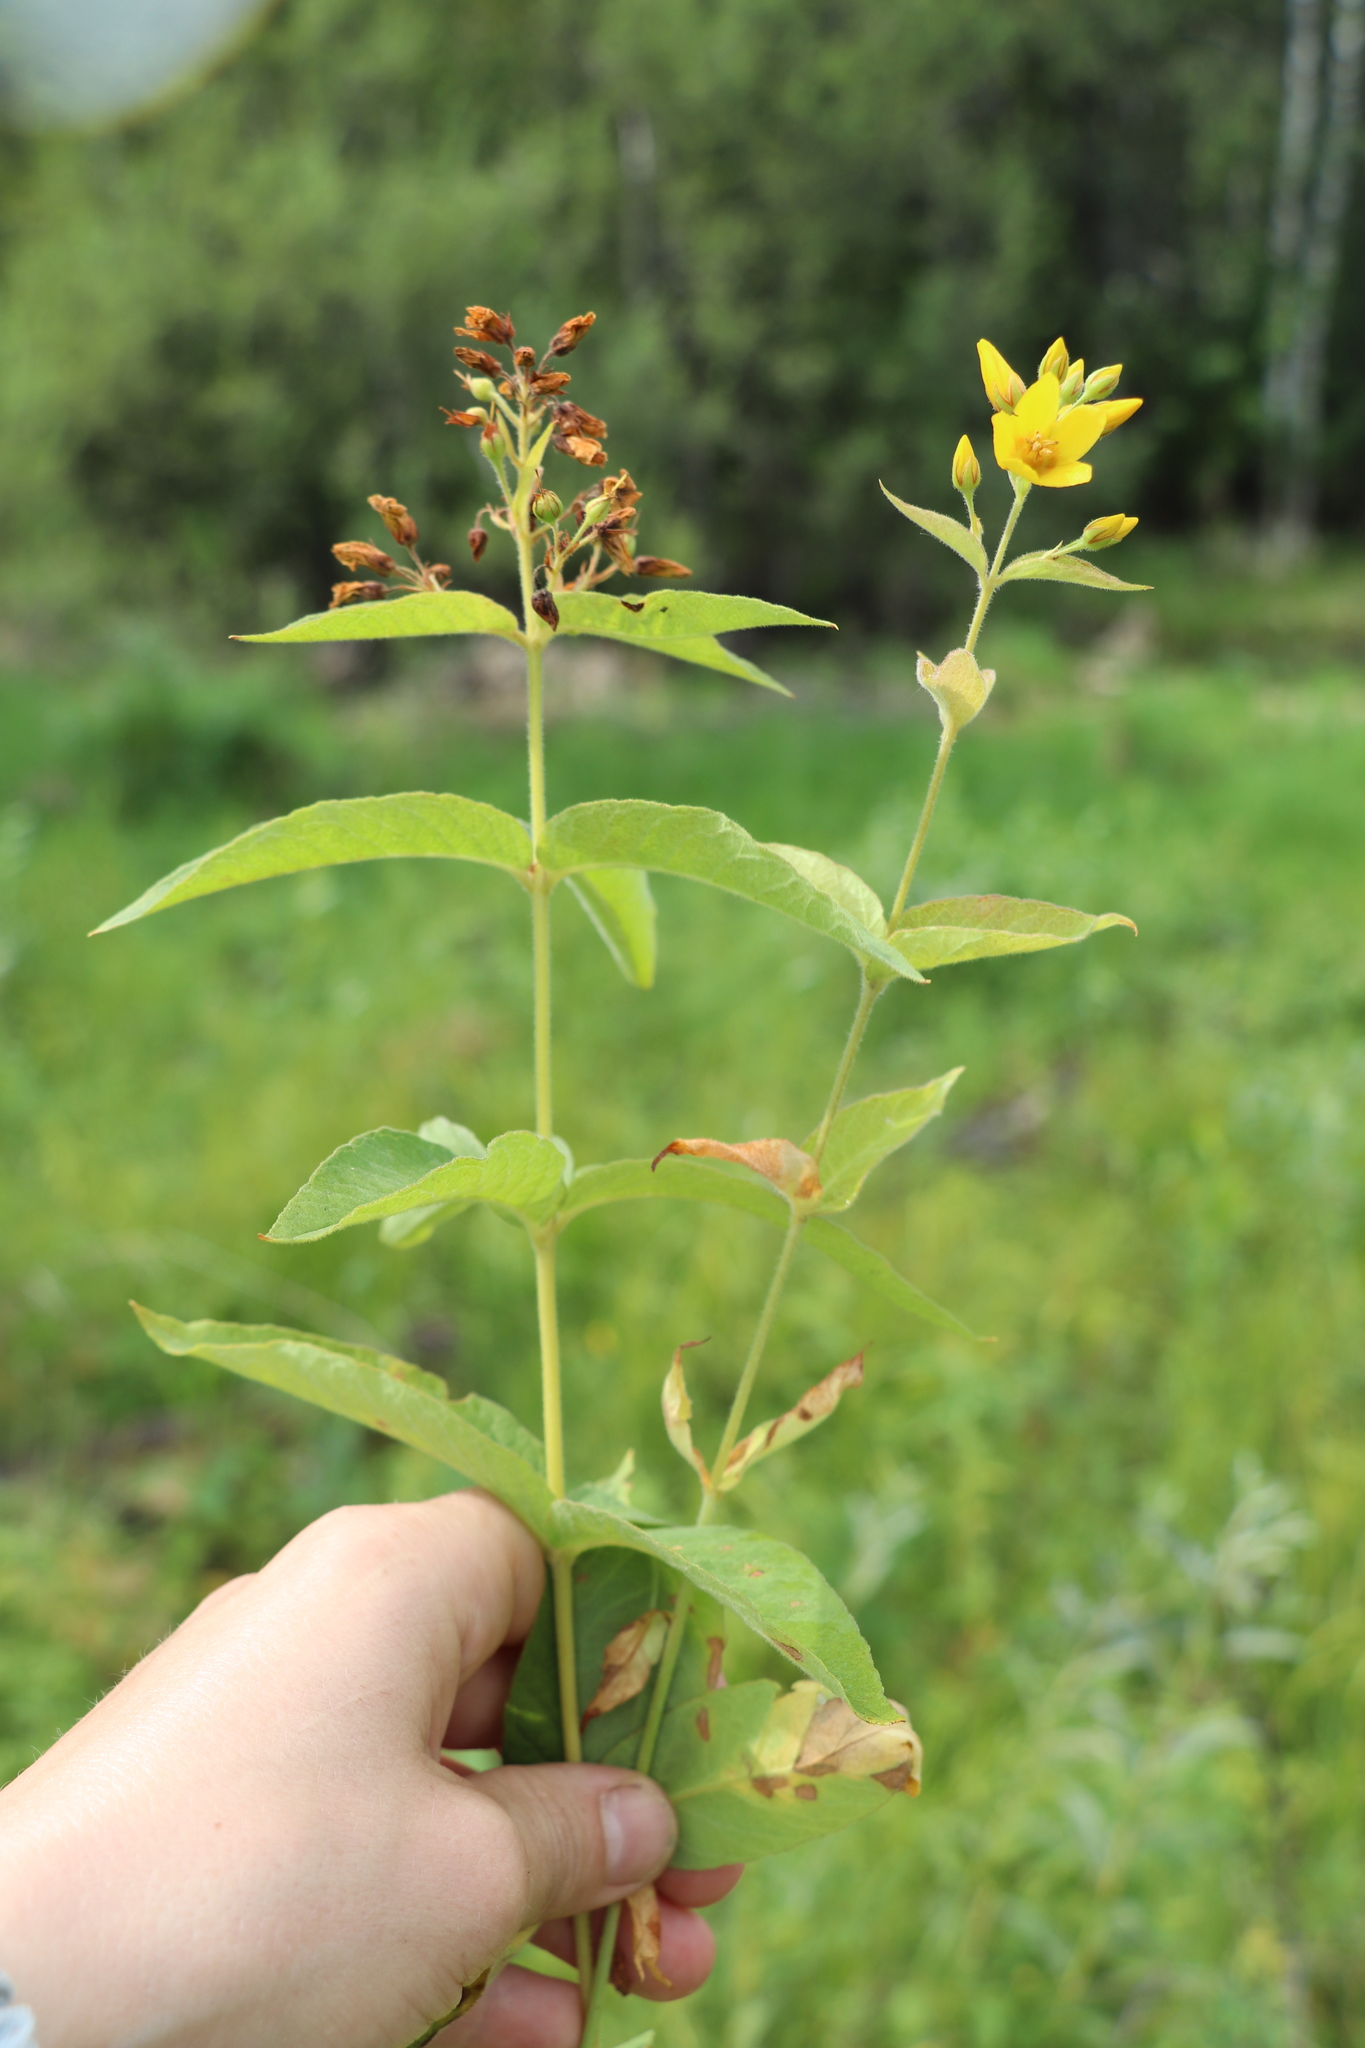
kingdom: Plantae
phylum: Tracheophyta
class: Magnoliopsida
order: Ericales
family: Primulaceae
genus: Lysimachia
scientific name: Lysimachia vulgaris
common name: Yellow loosestrife
